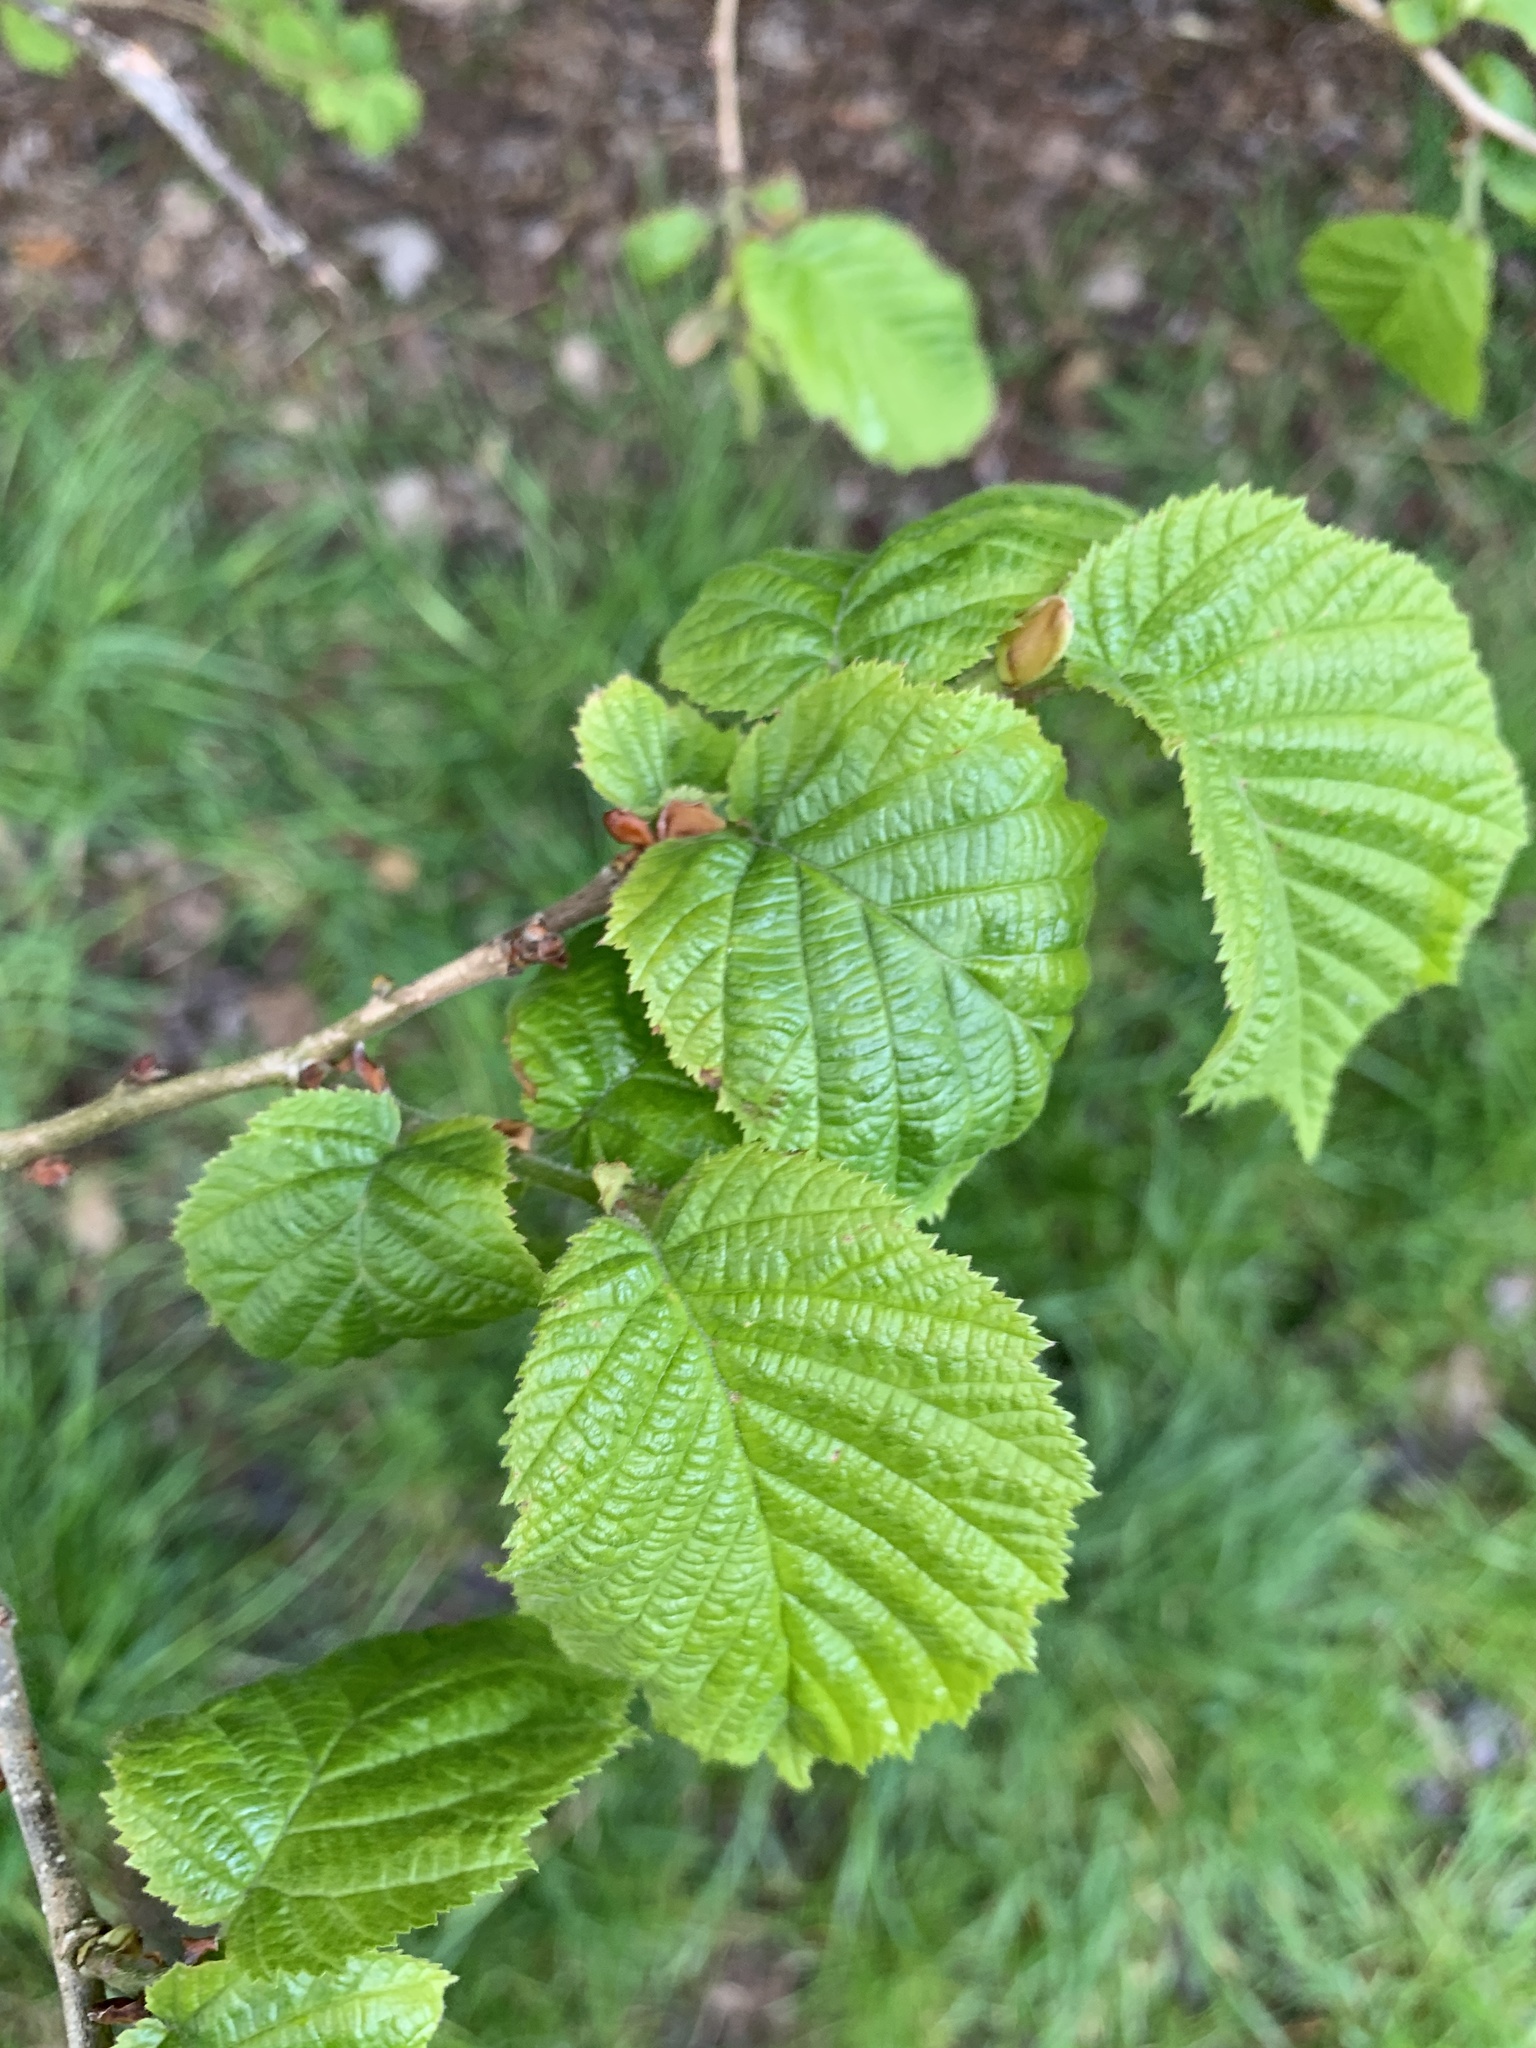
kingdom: Plantae
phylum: Tracheophyta
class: Magnoliopsida
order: Fagales
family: Betulaceae
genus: Corylus
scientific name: Corylus avellana
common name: European hazel
